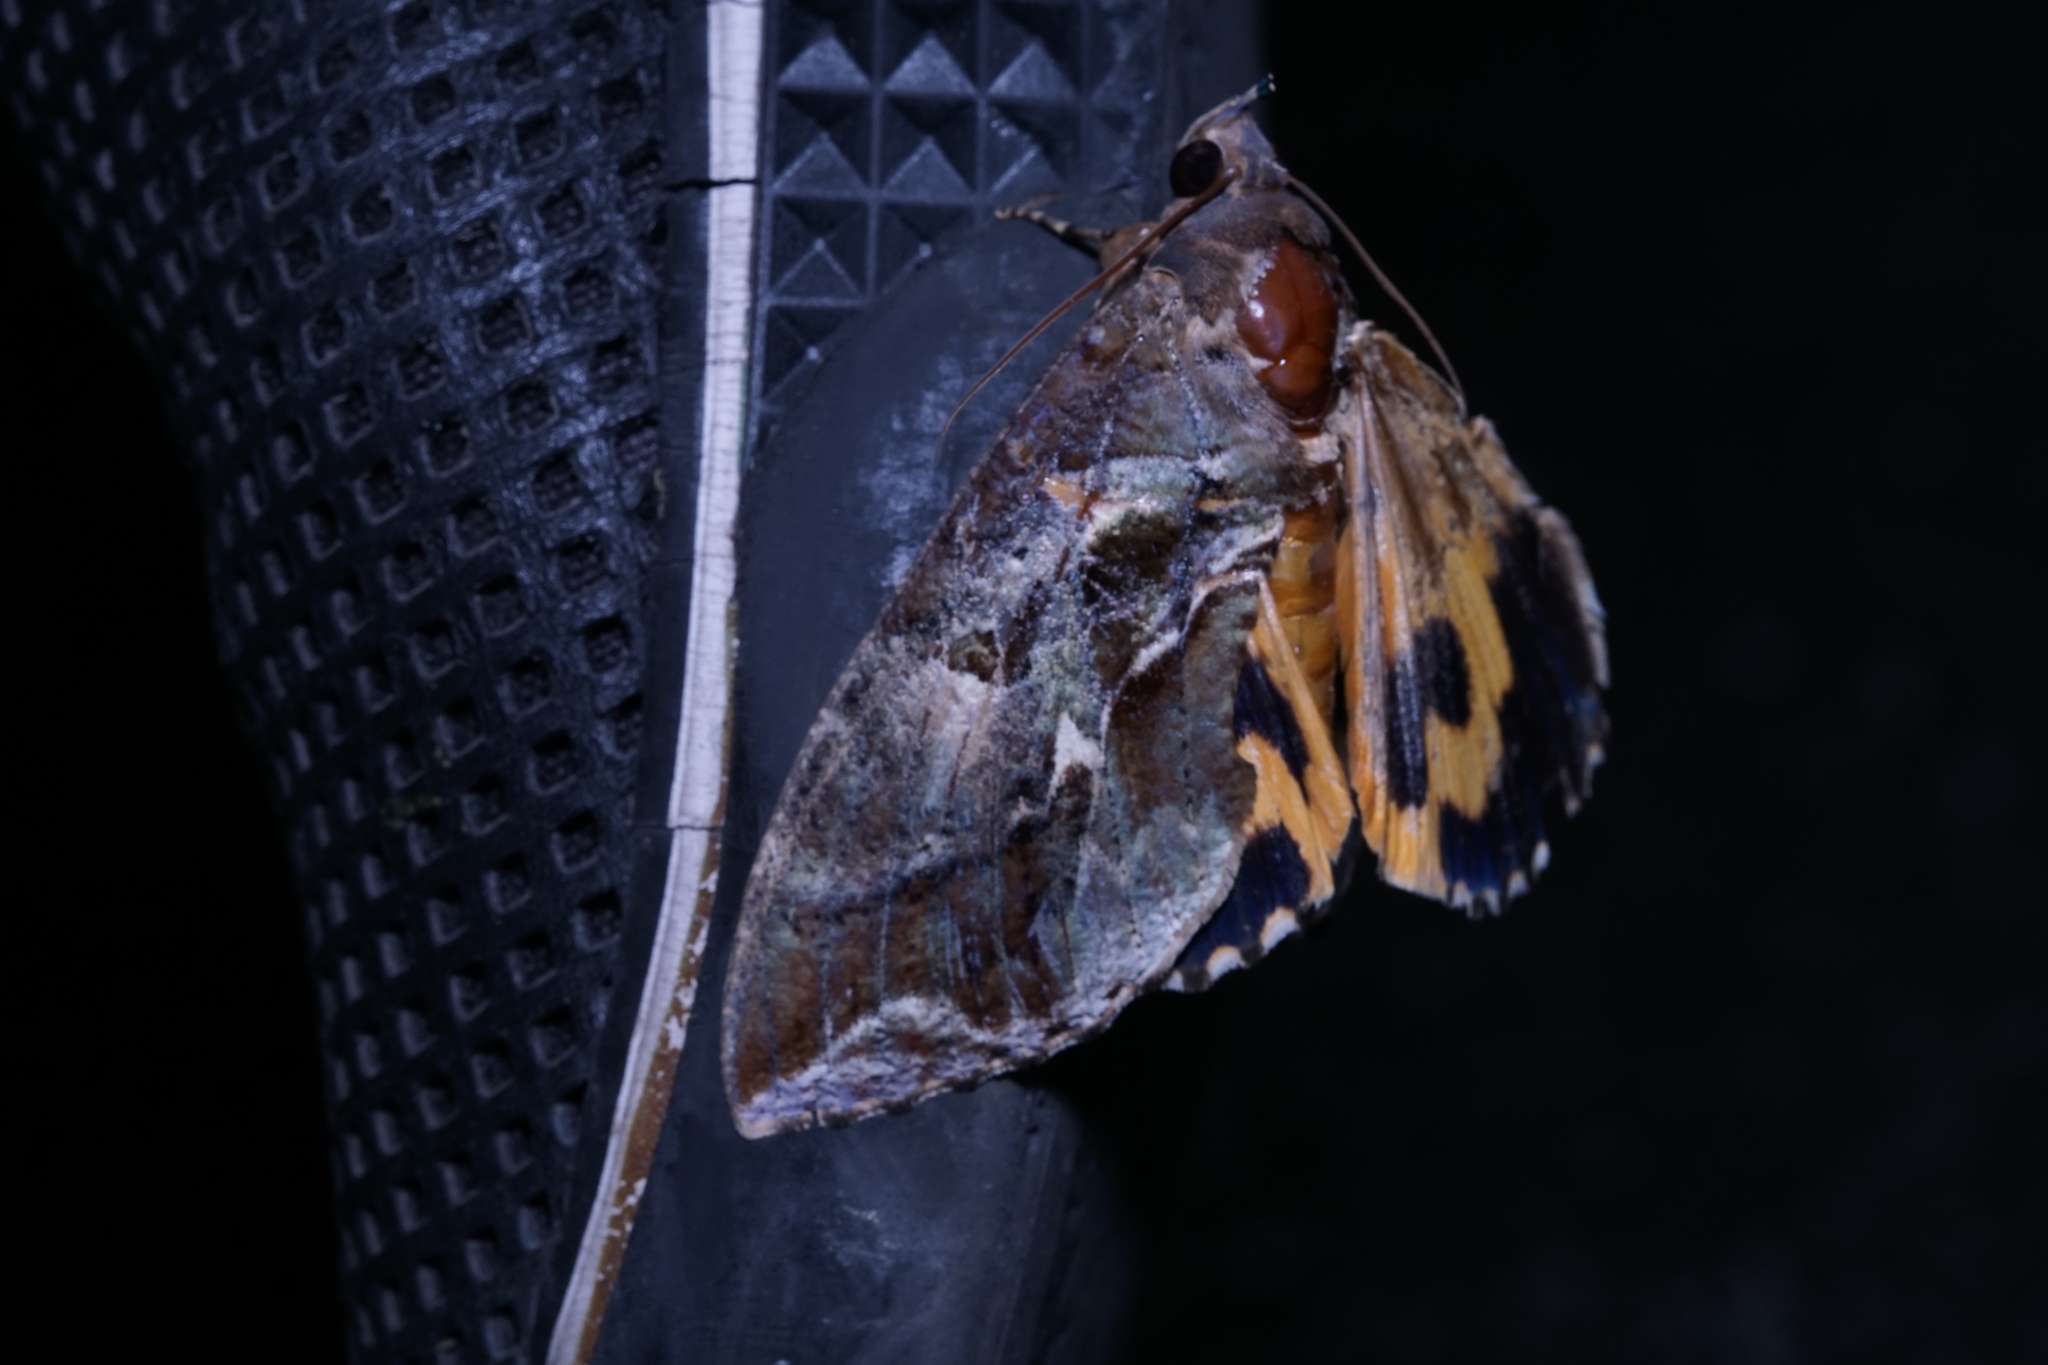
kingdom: Animalia
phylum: Arthropoda
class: Insecta
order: Lepidoptera
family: Erebidae
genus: Eudocima
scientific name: Eudocima phalonia
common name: Wasp
